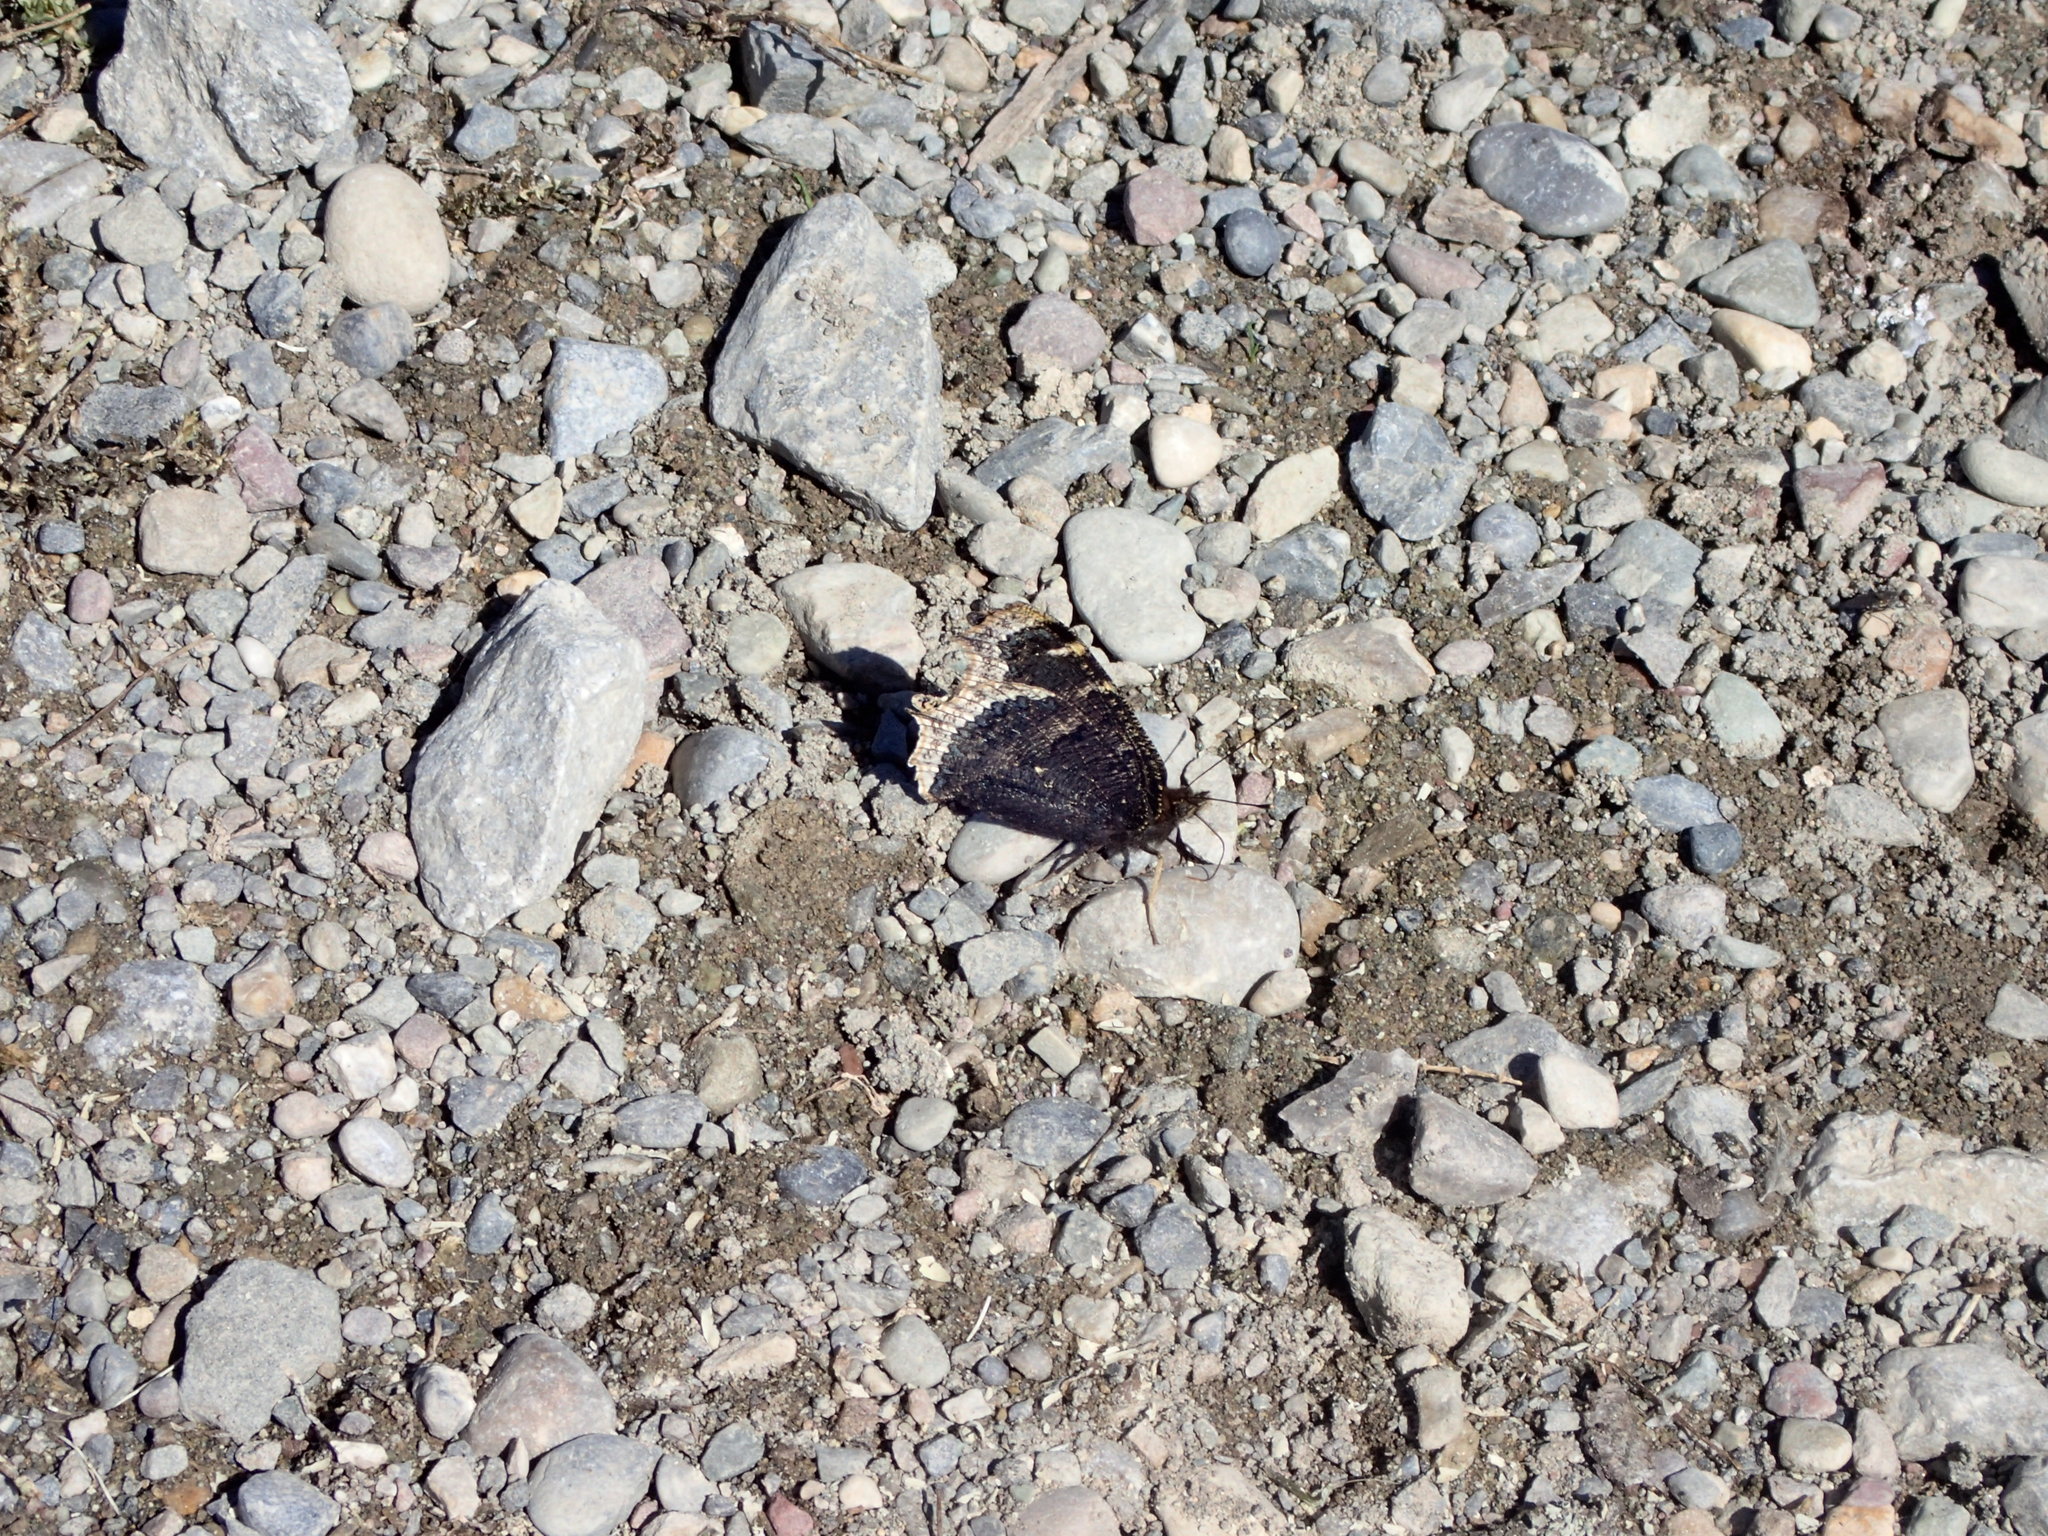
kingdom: Animalia
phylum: Arthropoda
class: Insecta
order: Lepidoptera
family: Nymphalidae
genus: Nymphalis
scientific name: Nymphalis antiopa
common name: Camberwell beauty
